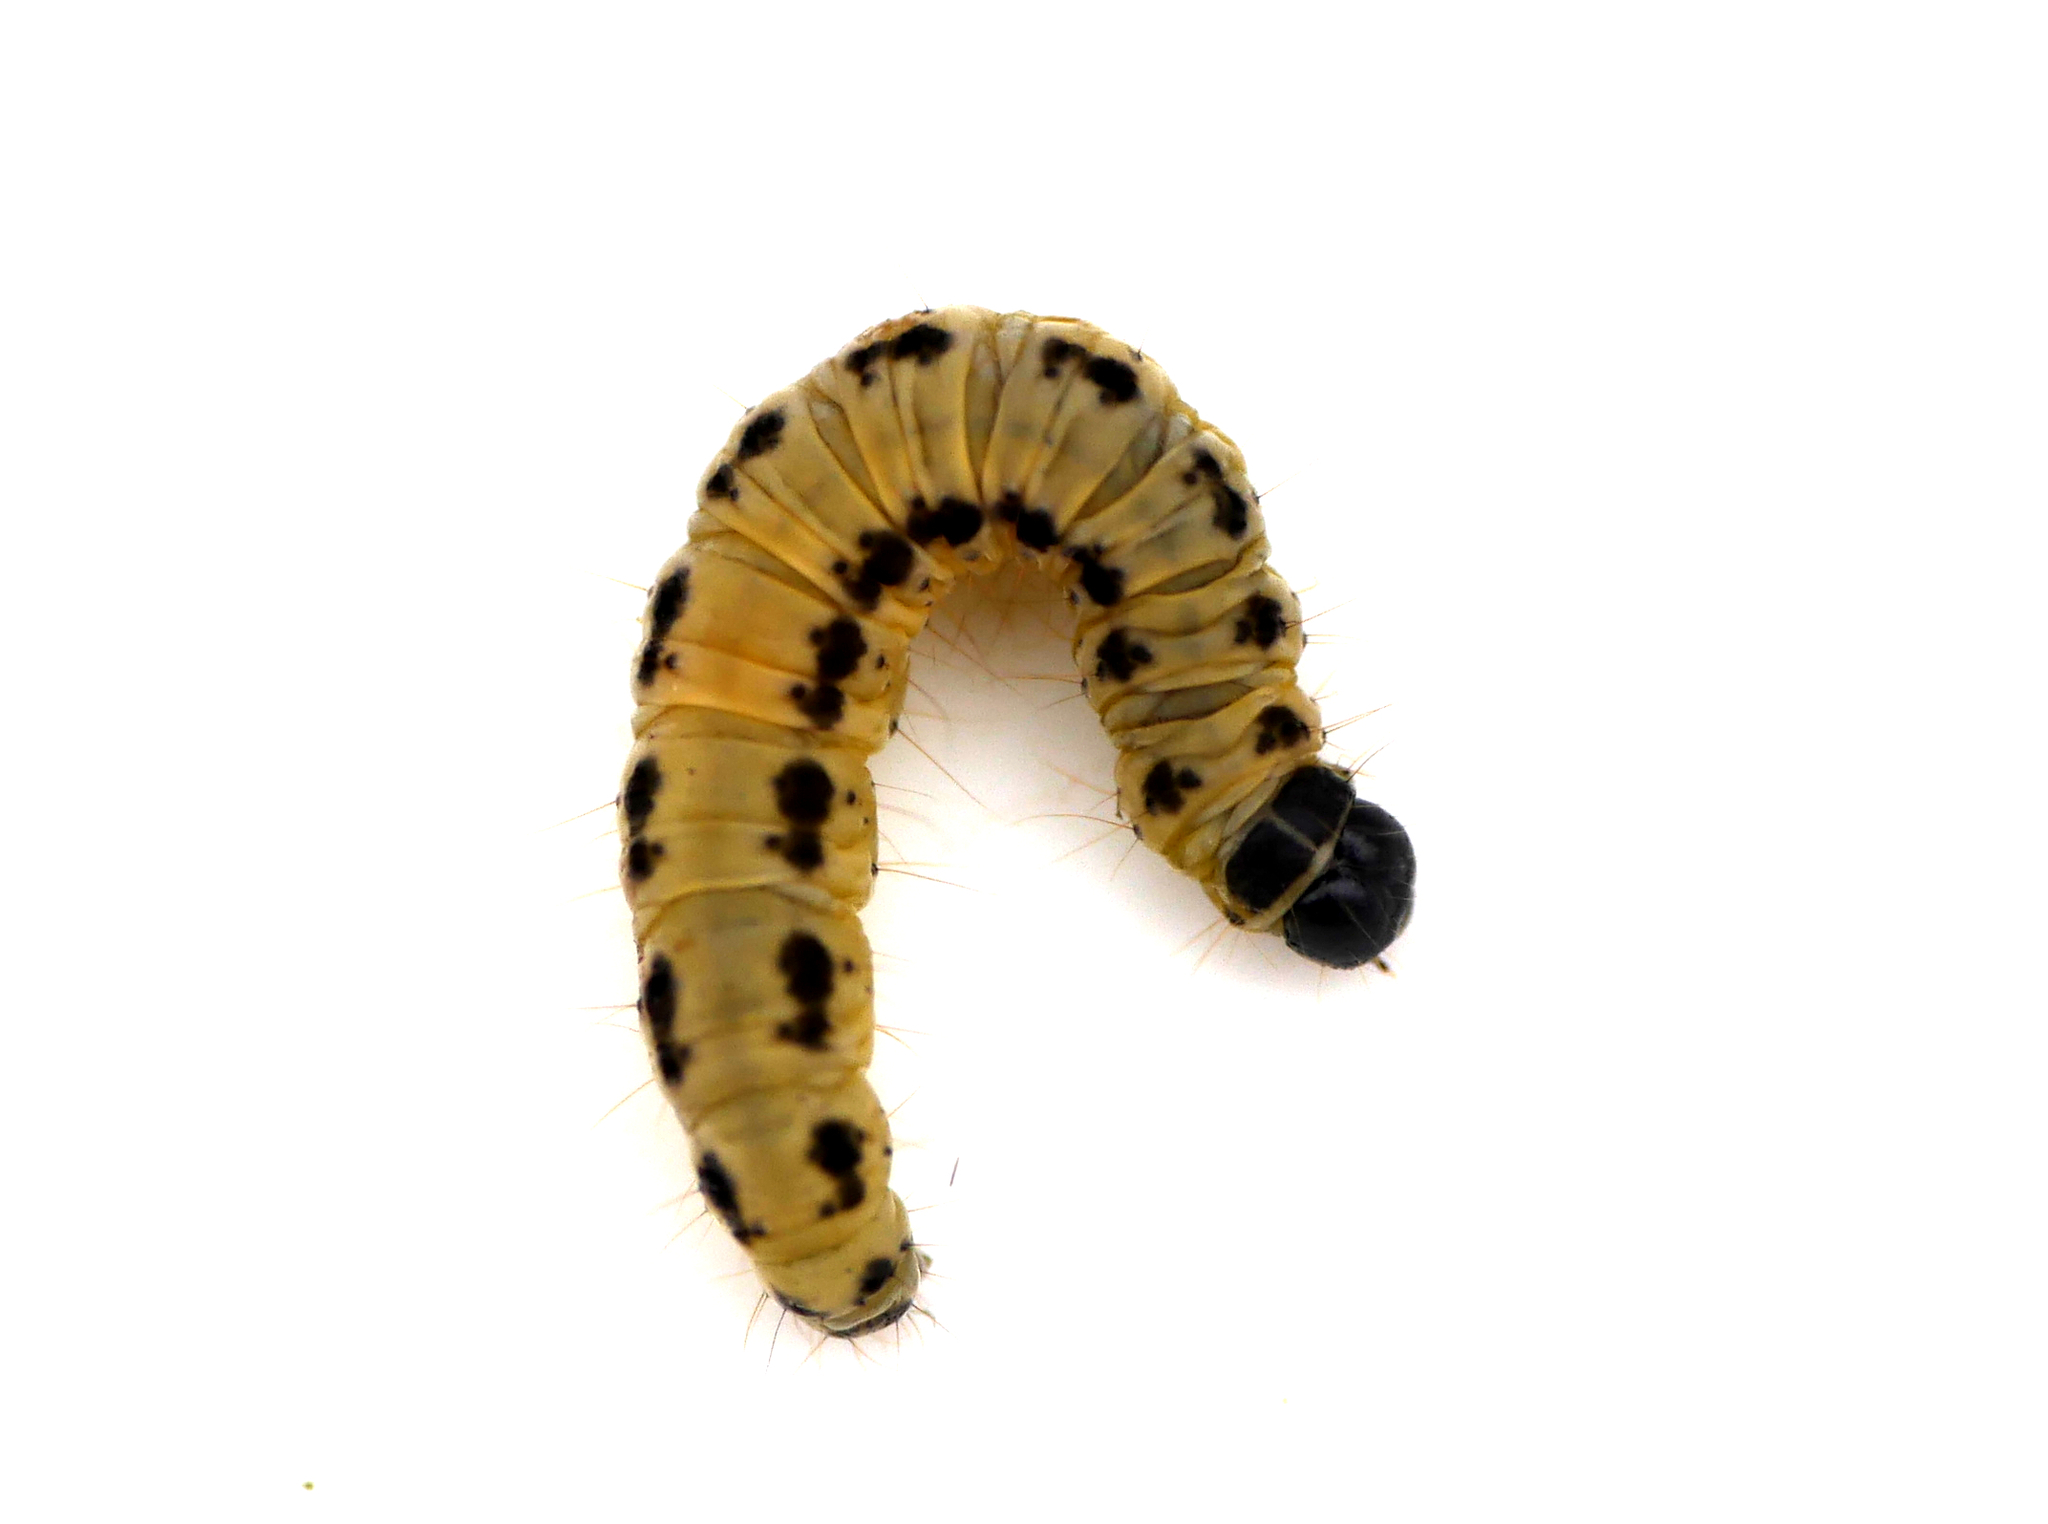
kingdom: Animalia
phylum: Arthropoda
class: Insecta
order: Lepidoptera
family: Yponomeutidae
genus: Yponomeuta
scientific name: Yponomeuta evonymella
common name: Bird-cherry ermine
